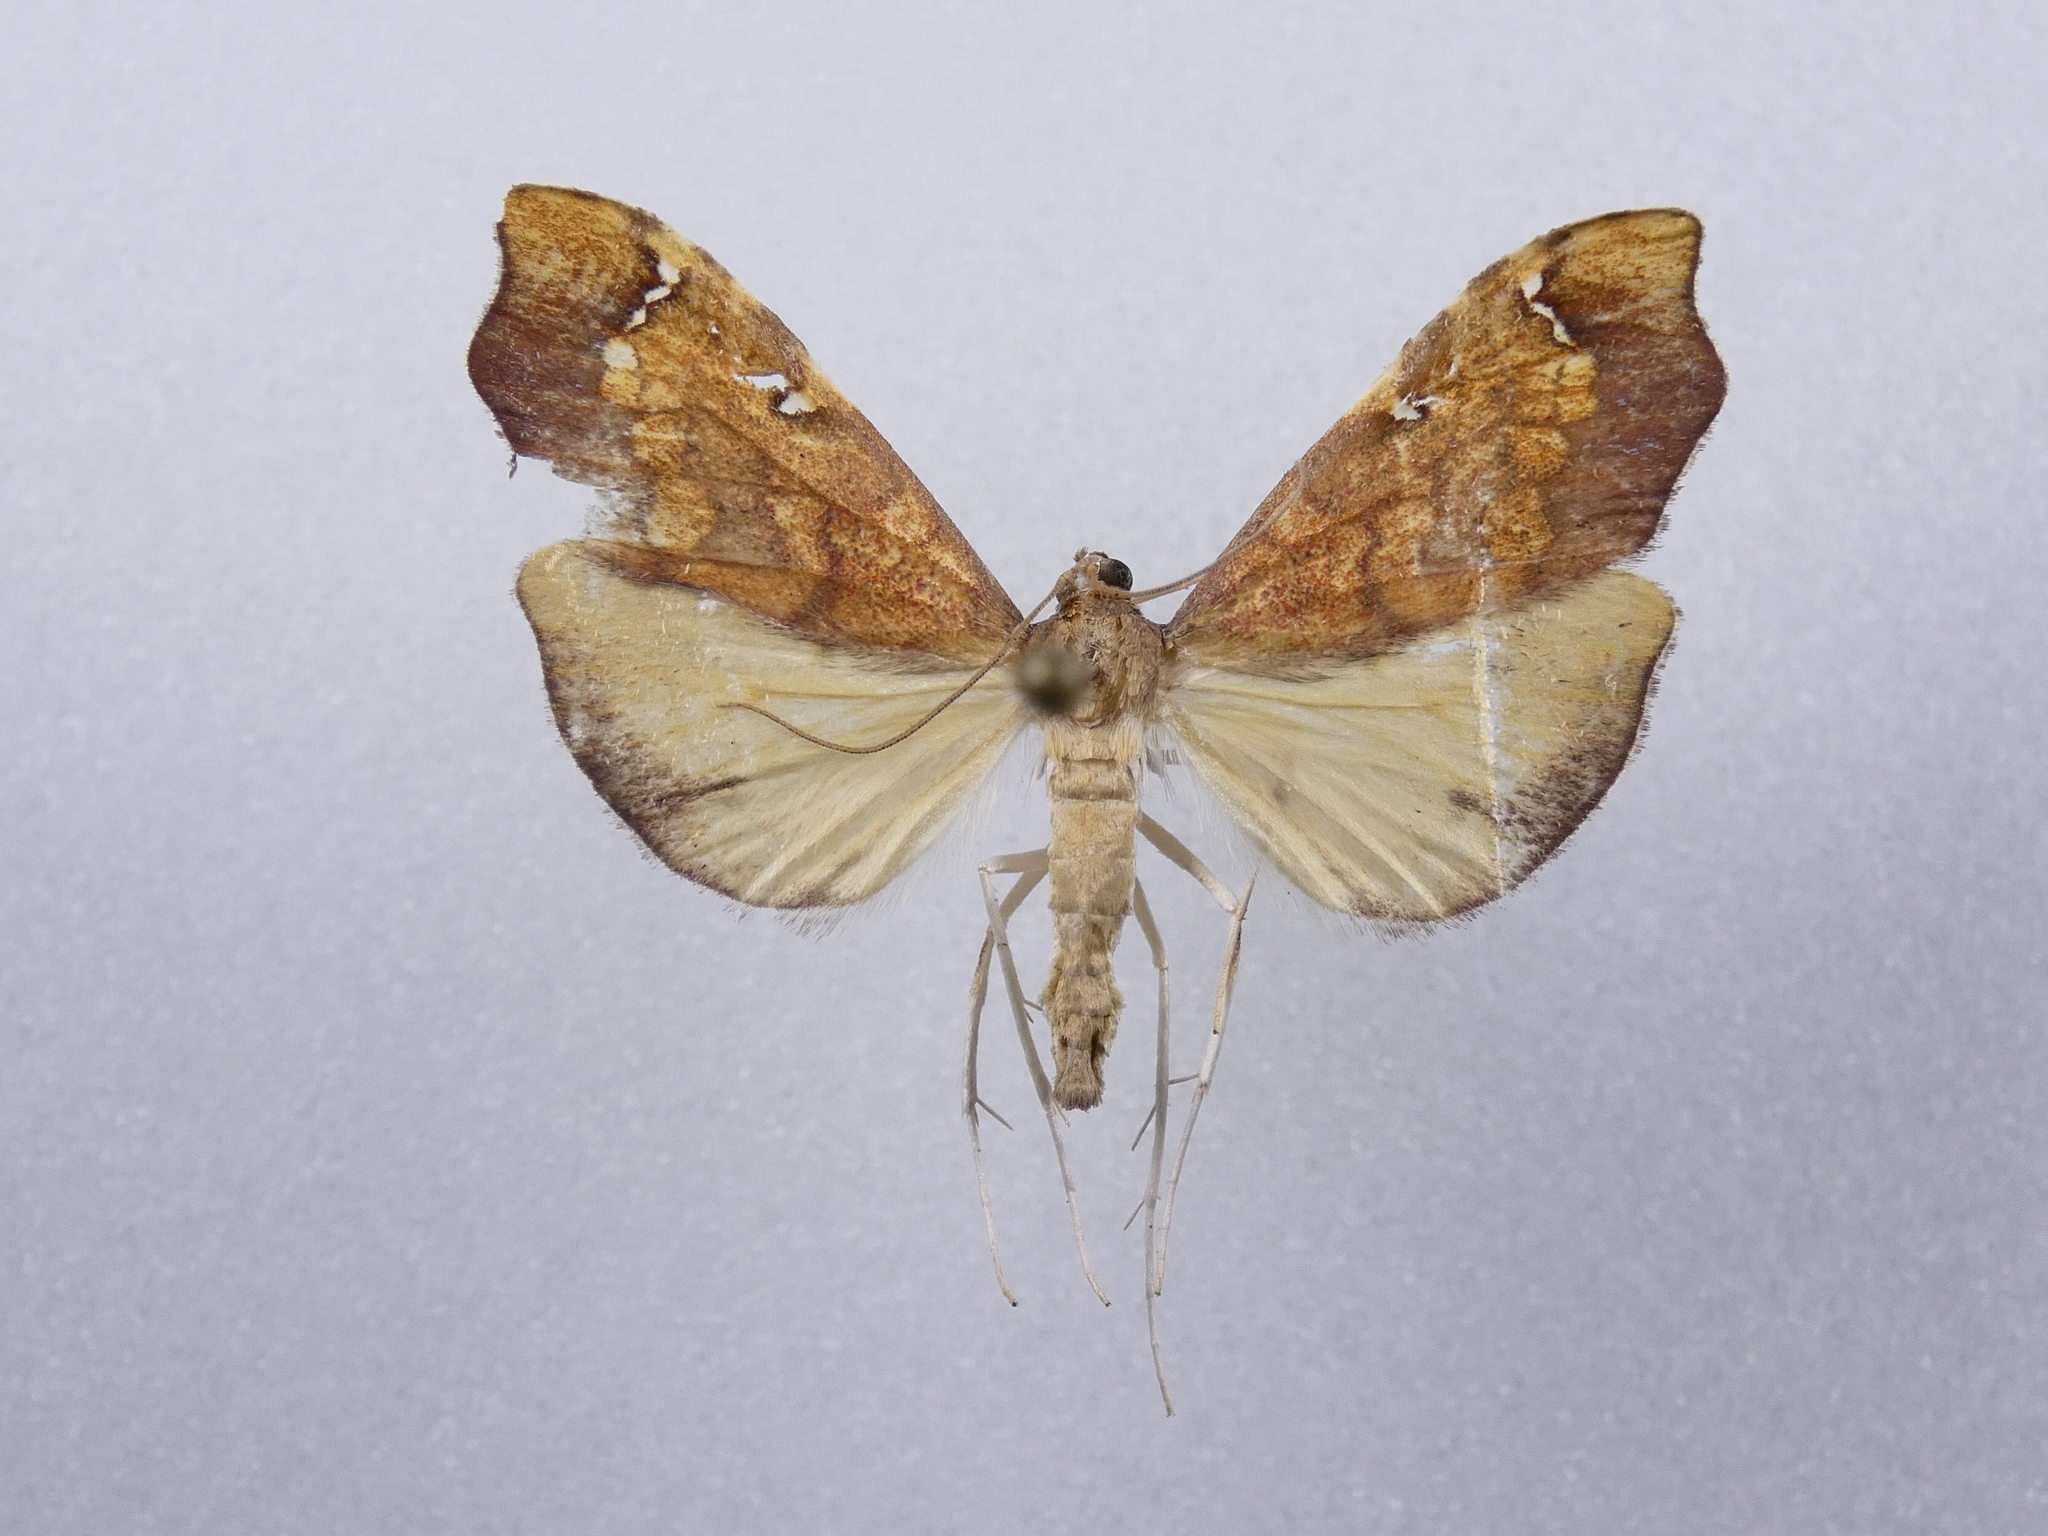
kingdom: Animalia
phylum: Arthropoda
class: Insecta
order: Lepidoptera
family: Crambidae
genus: Deana
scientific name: Deana hybreasalis
